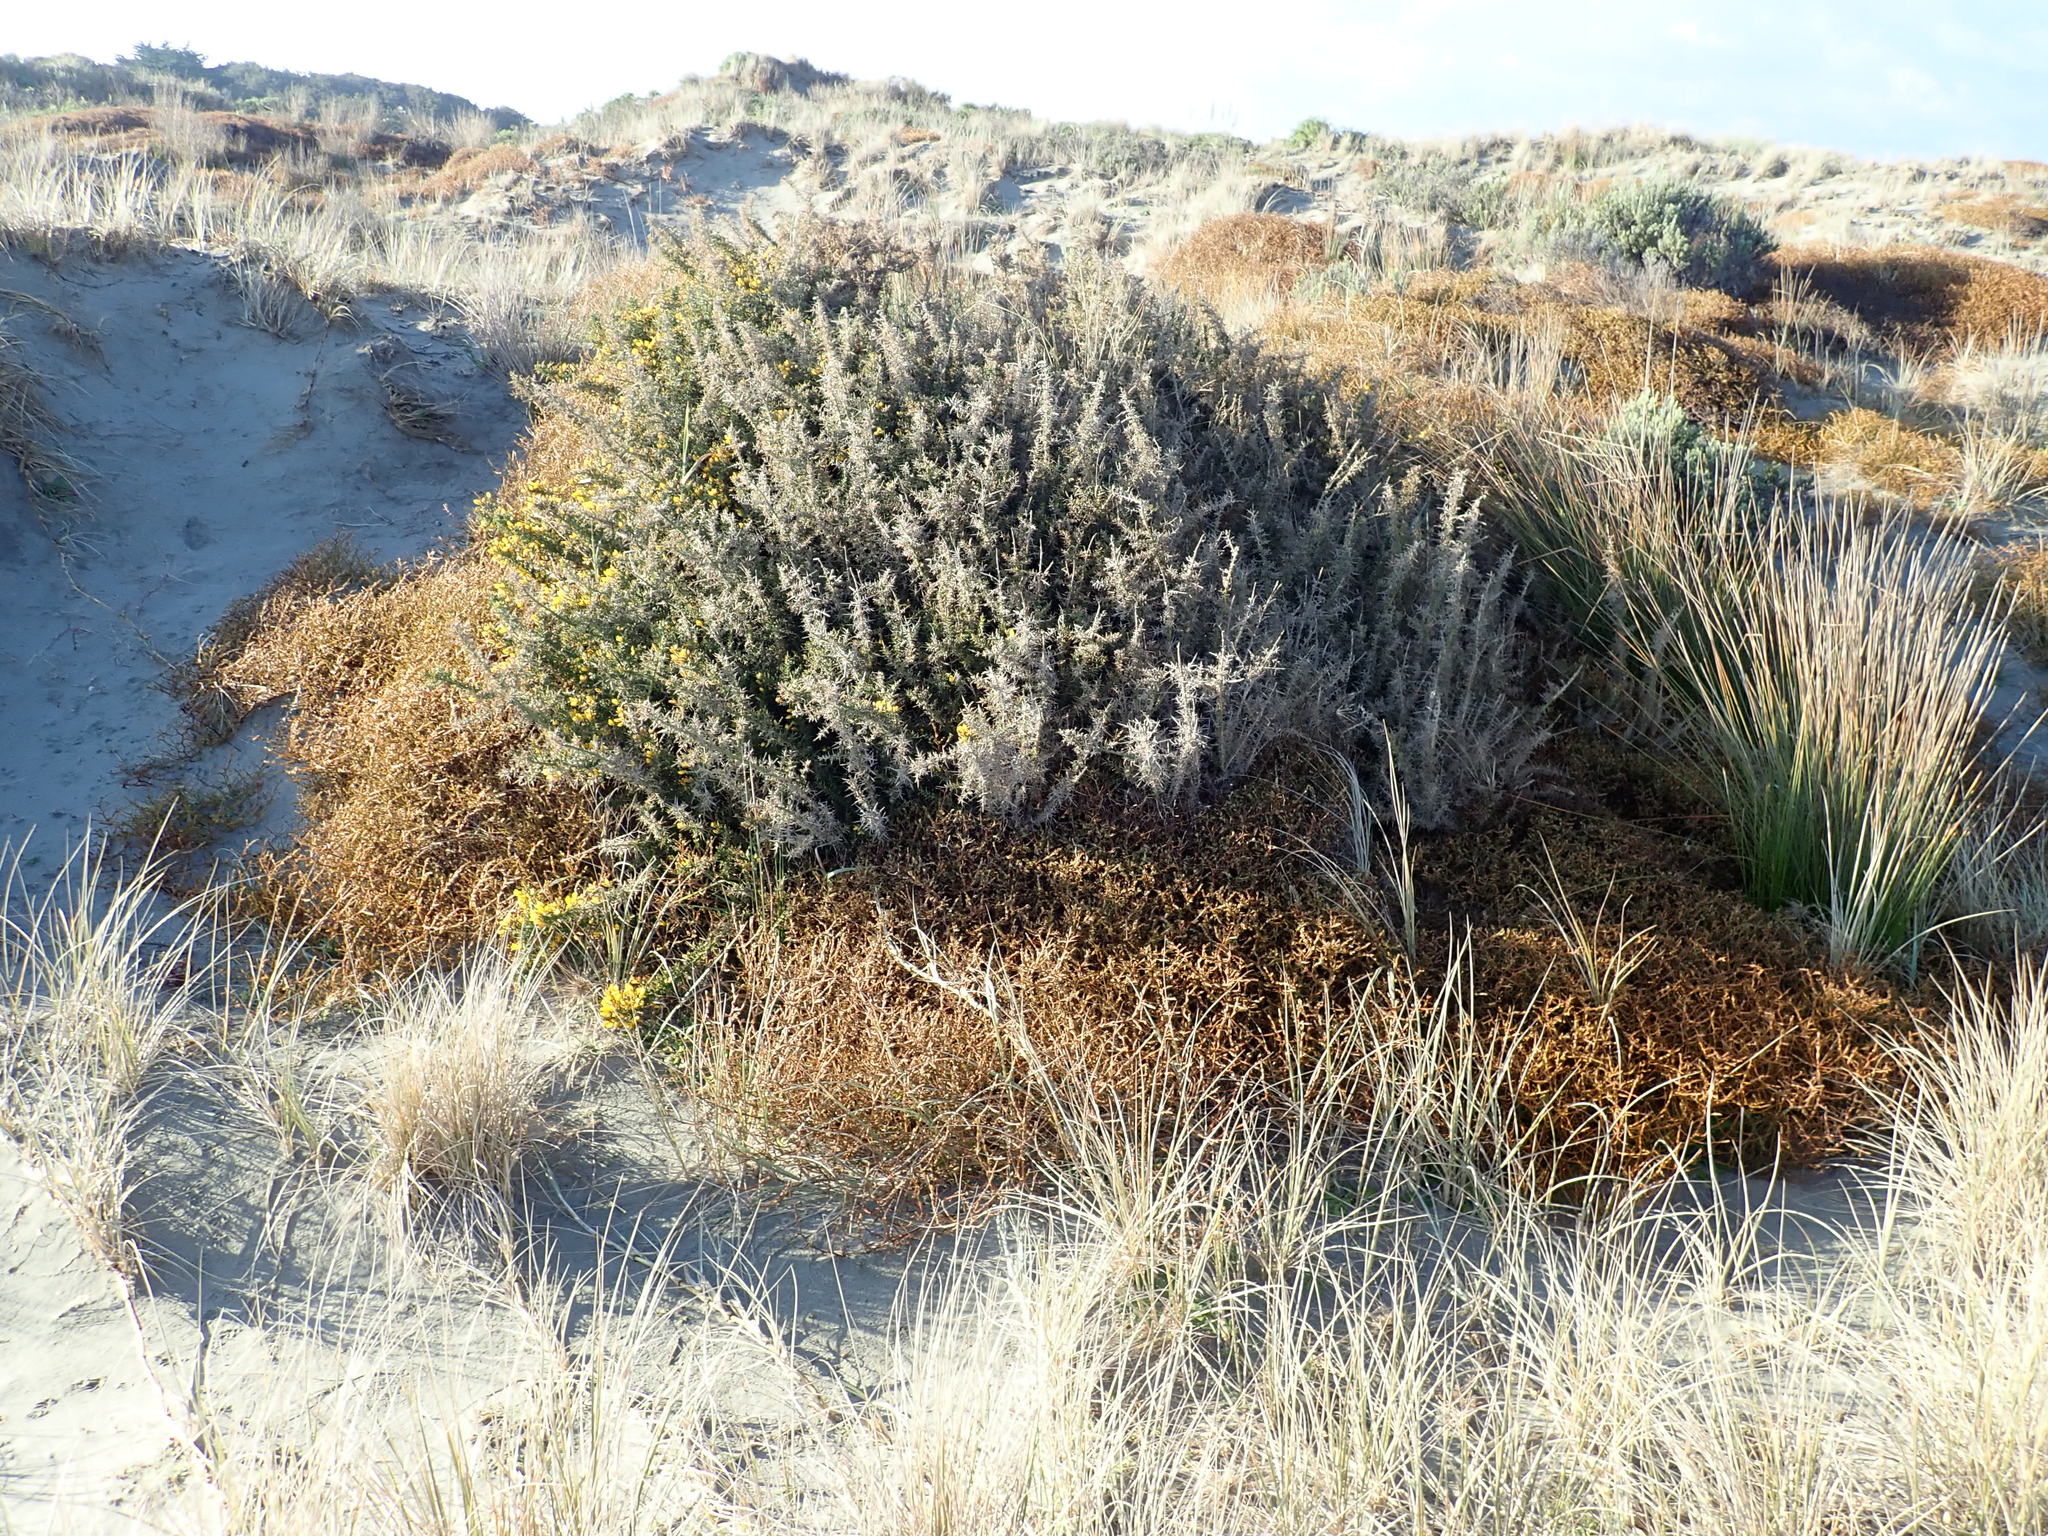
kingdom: Plantae
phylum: Tracheophyta
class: Magnoliopsida
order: Fabales
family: Fabaceae
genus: Ulex
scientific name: Ulex europaeus
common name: Common gorse
